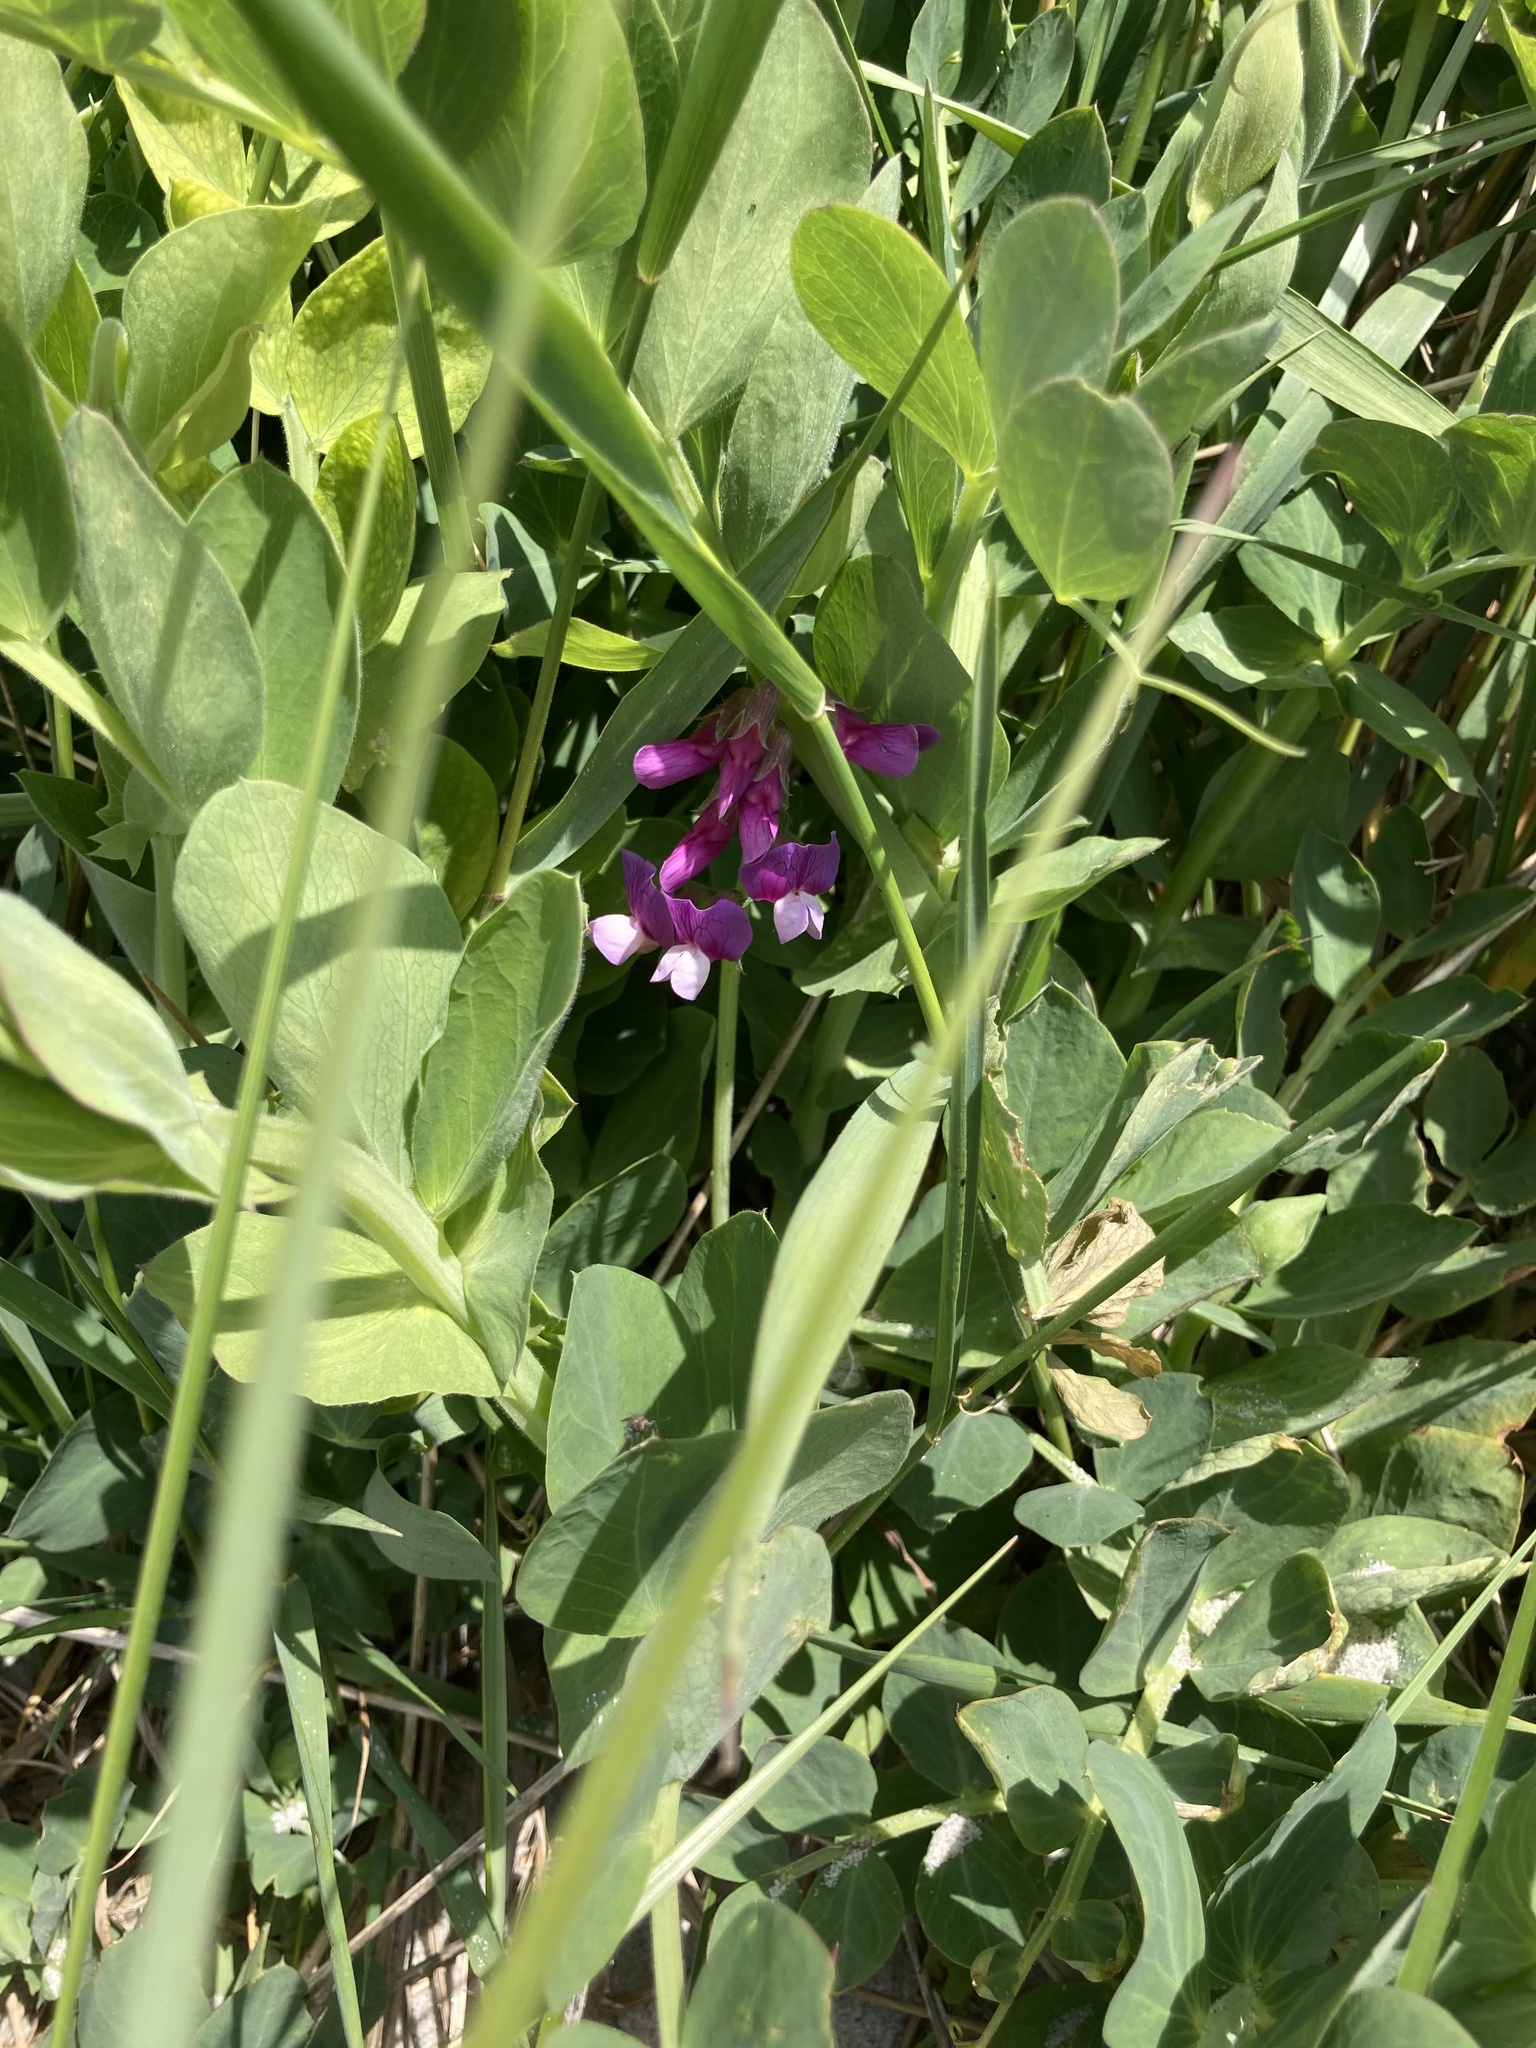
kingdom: Plantae
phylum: Tracheophyta
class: Magnoliopsida
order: Fabales
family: Fabaceae
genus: Lathyrus
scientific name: Lathyrus japonicus
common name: Sea pea
